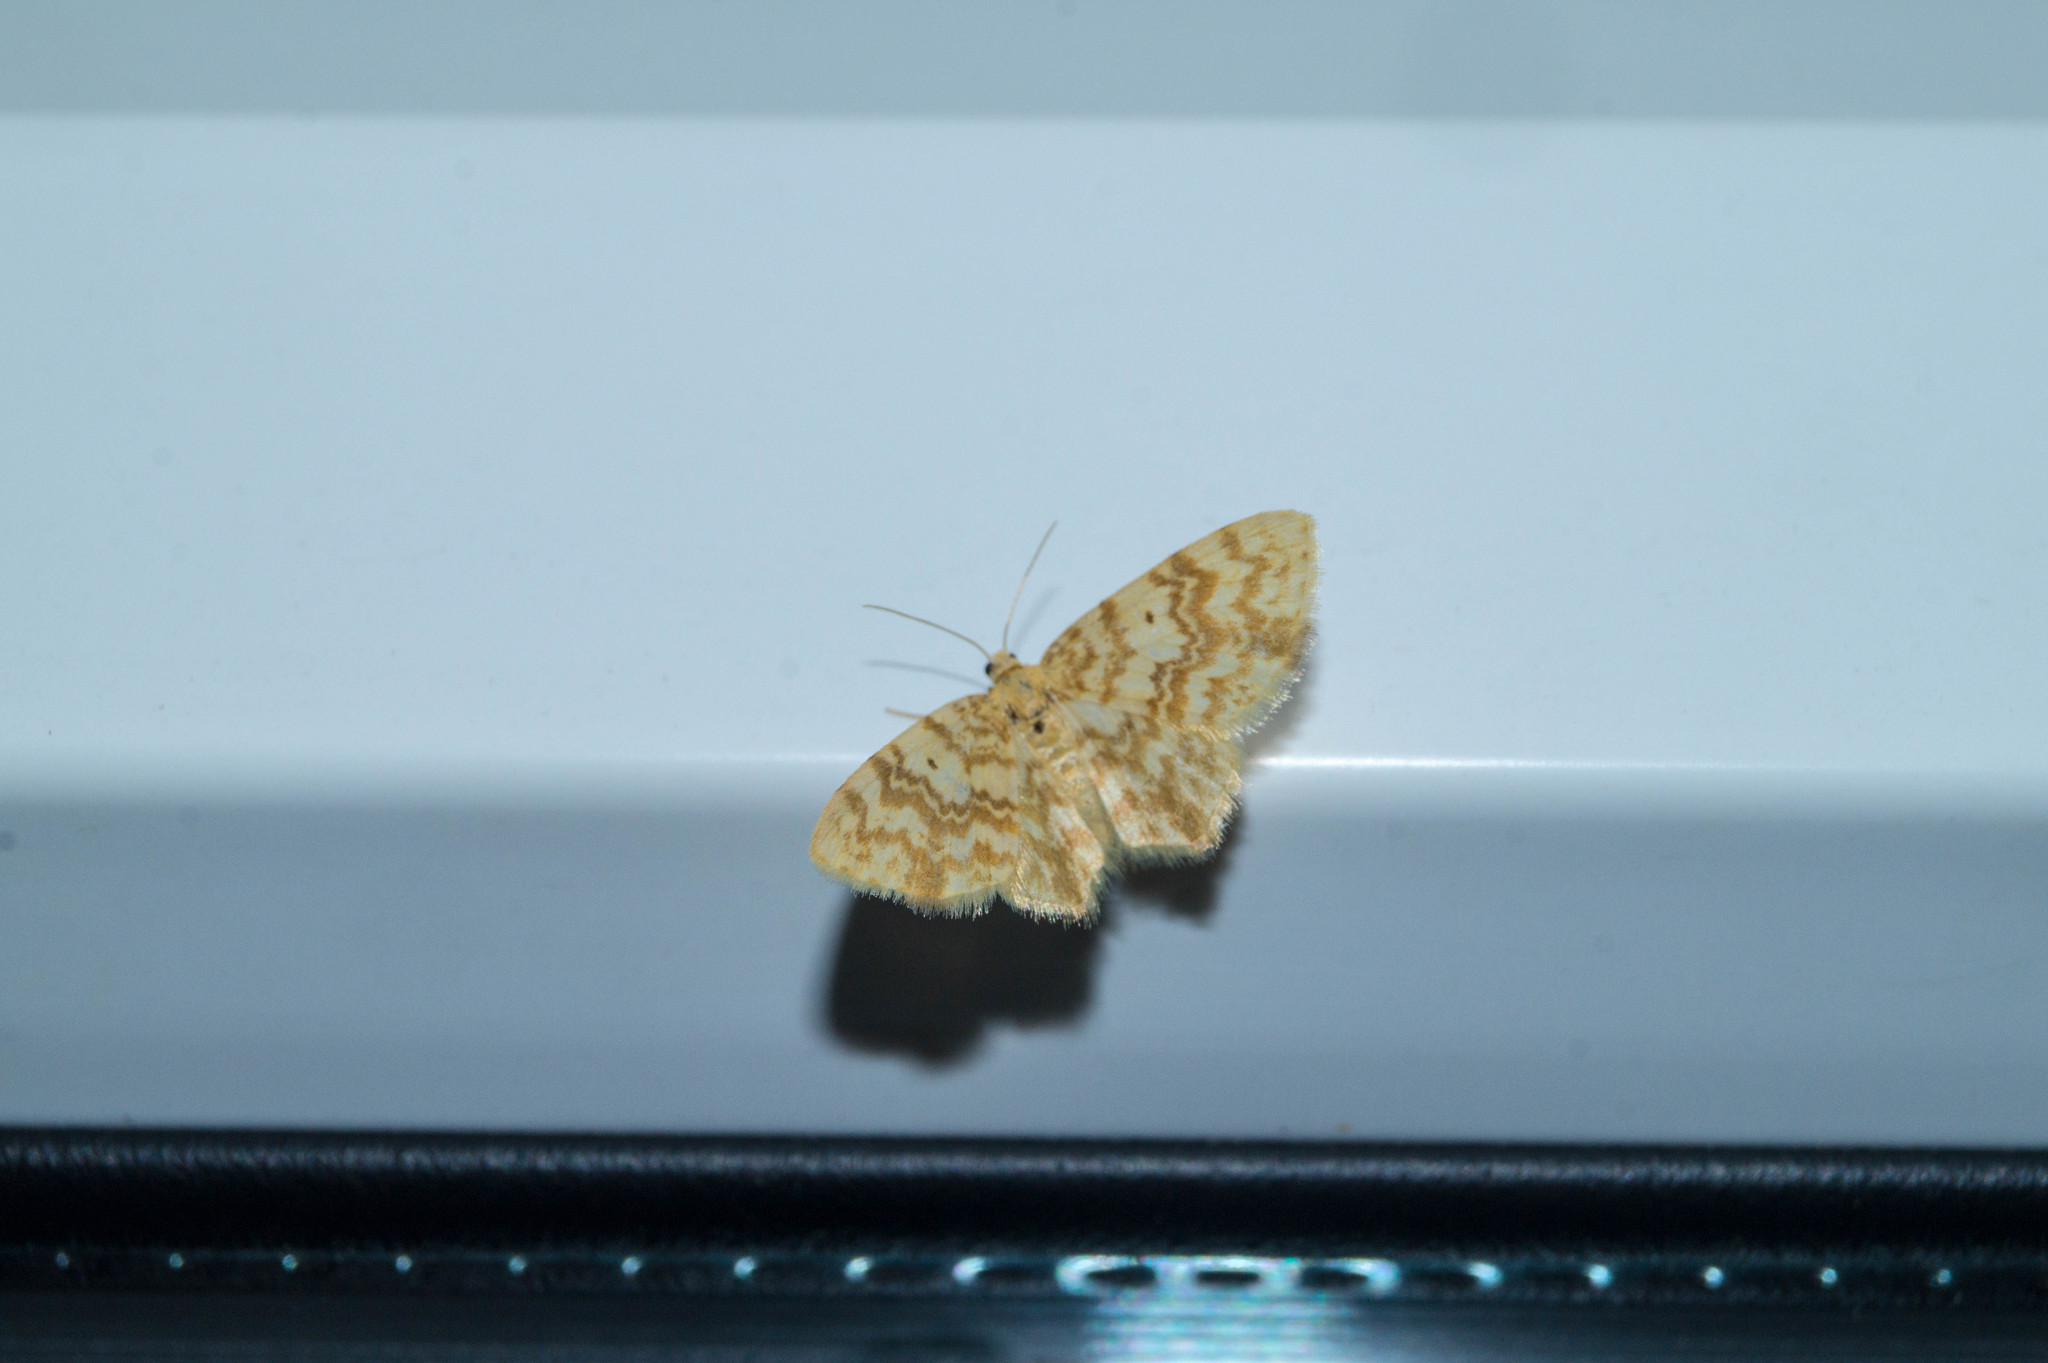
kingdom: Animalia
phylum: Arthropoda
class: Insecta
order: Lepidoptera
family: Geometridae
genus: Hydrelia
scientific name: Hydrelia flammeolaria
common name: Small yellow wave
